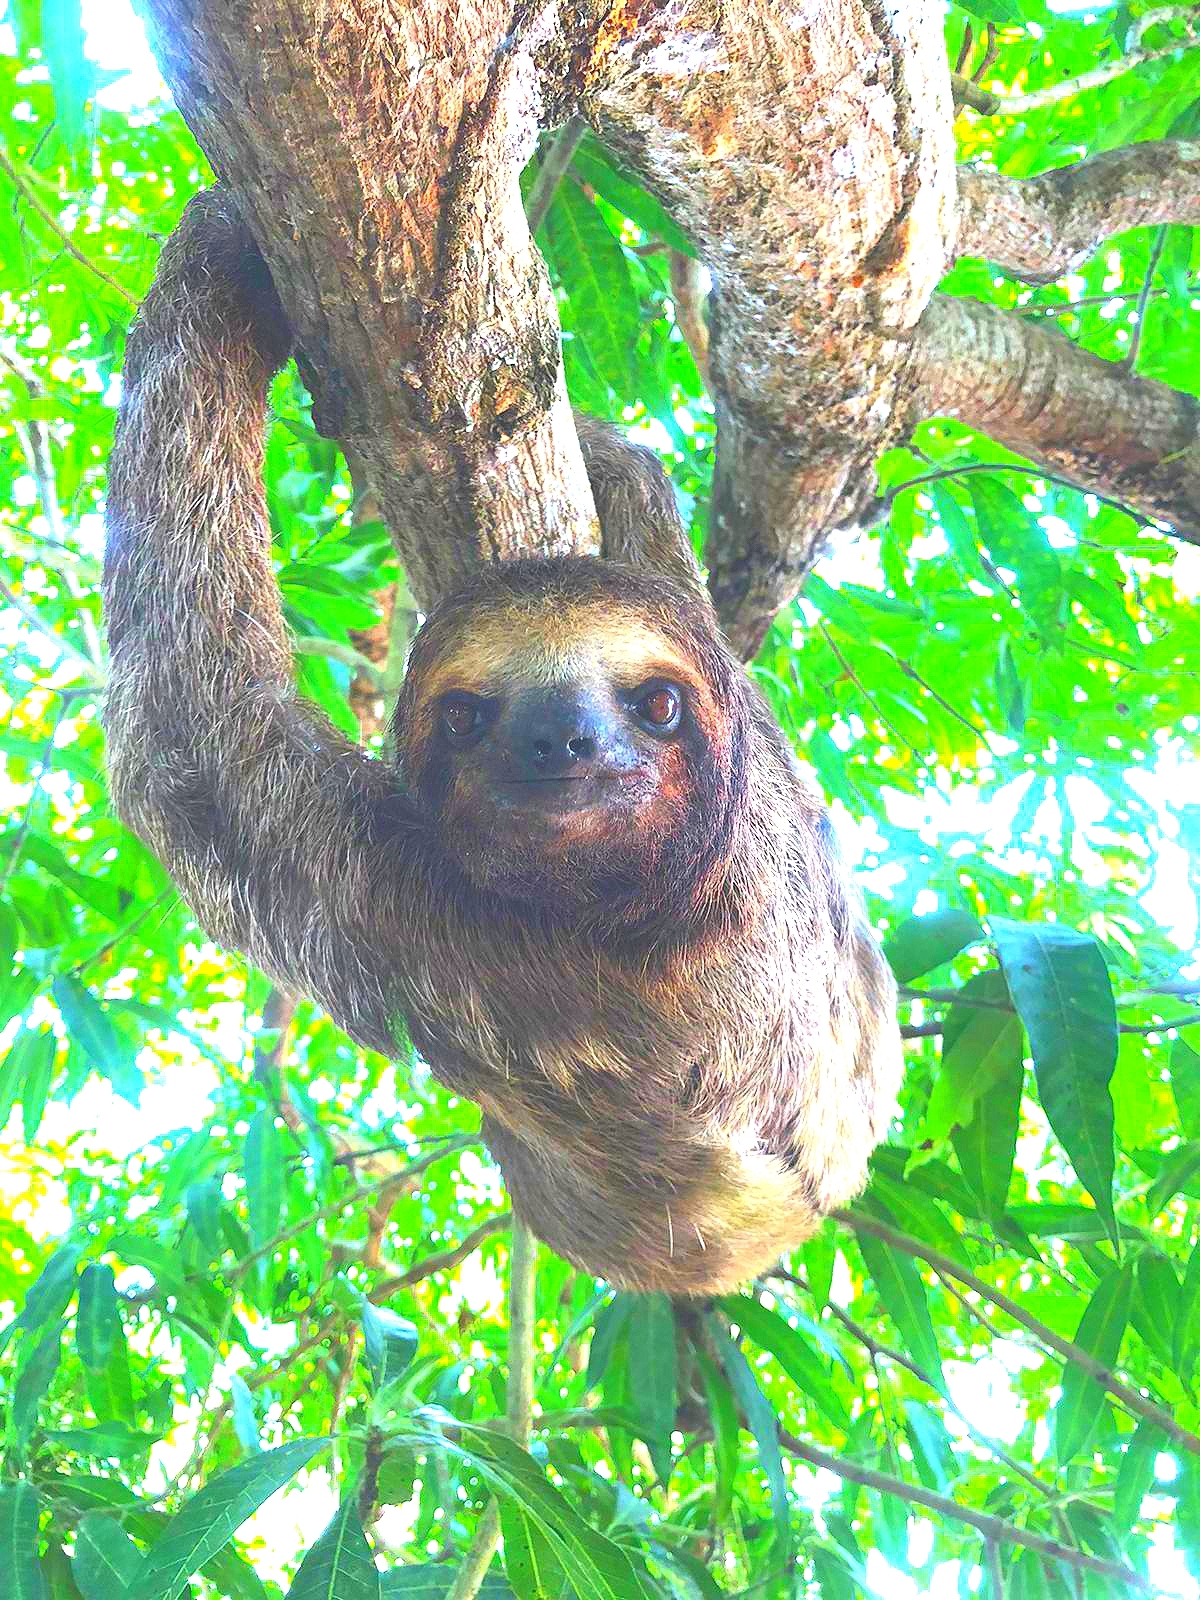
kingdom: Animalia
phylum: Chordata
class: Mammalia
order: Pilosa
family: Bradypodidae
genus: Bradypus
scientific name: Bradypus variegatus
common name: Brown-throated three-toed sloth
